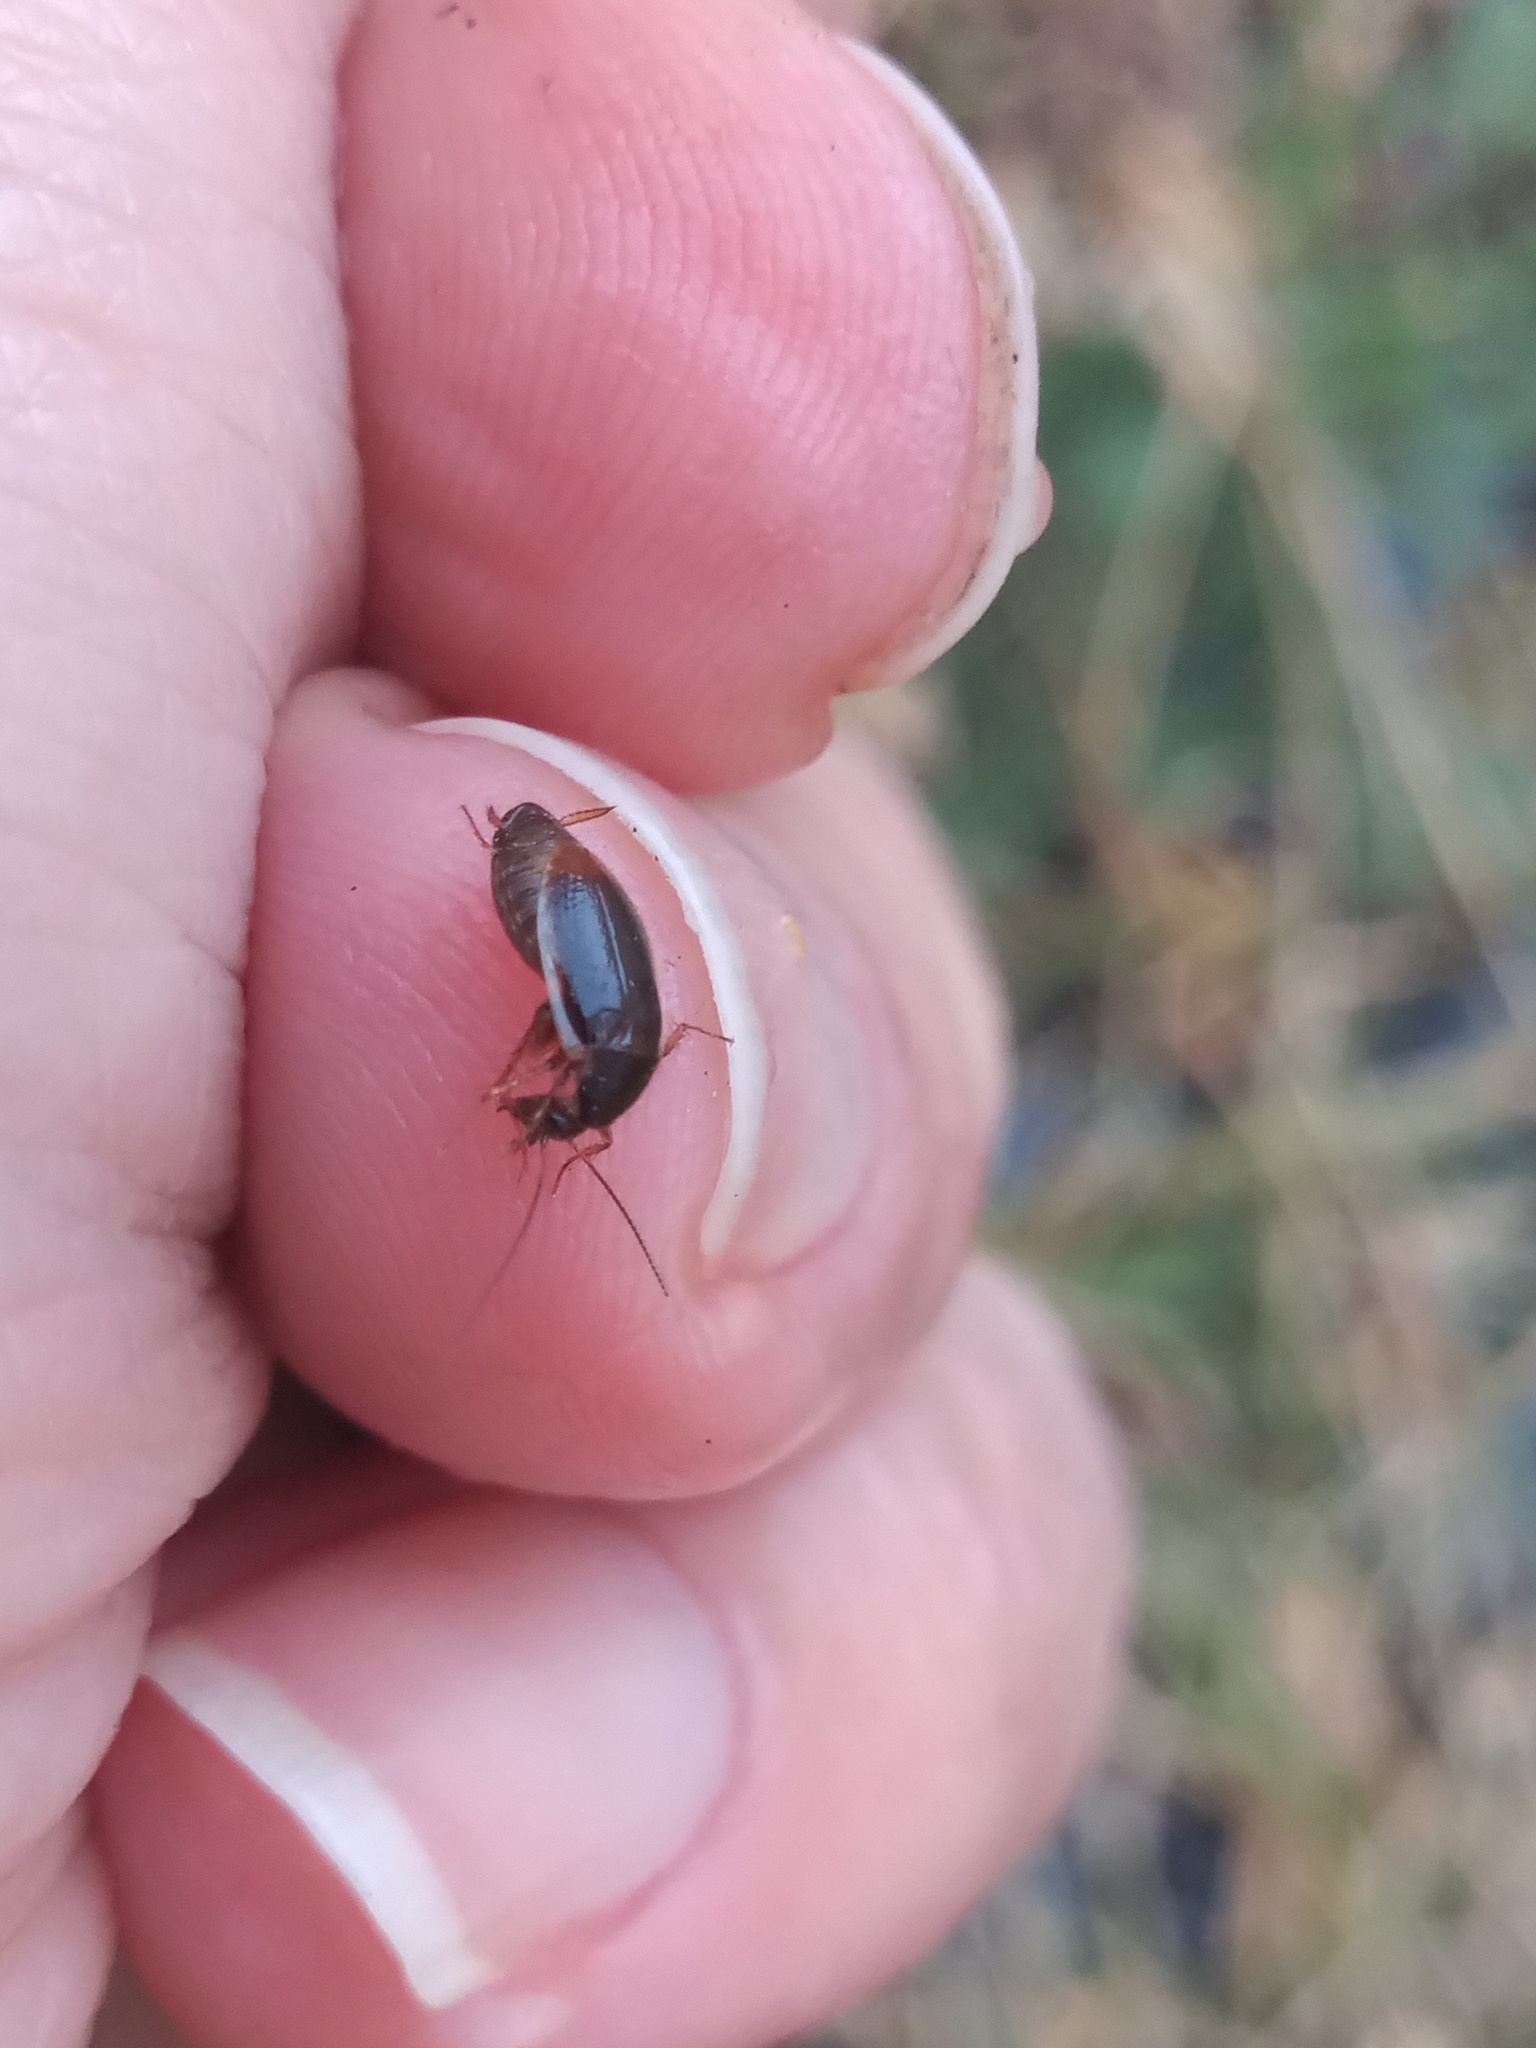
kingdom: Animalia
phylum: Arthropoda
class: Insecta
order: Blattodea
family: Anaplectidae
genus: Anaplecta
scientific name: Anaplecta fallax
